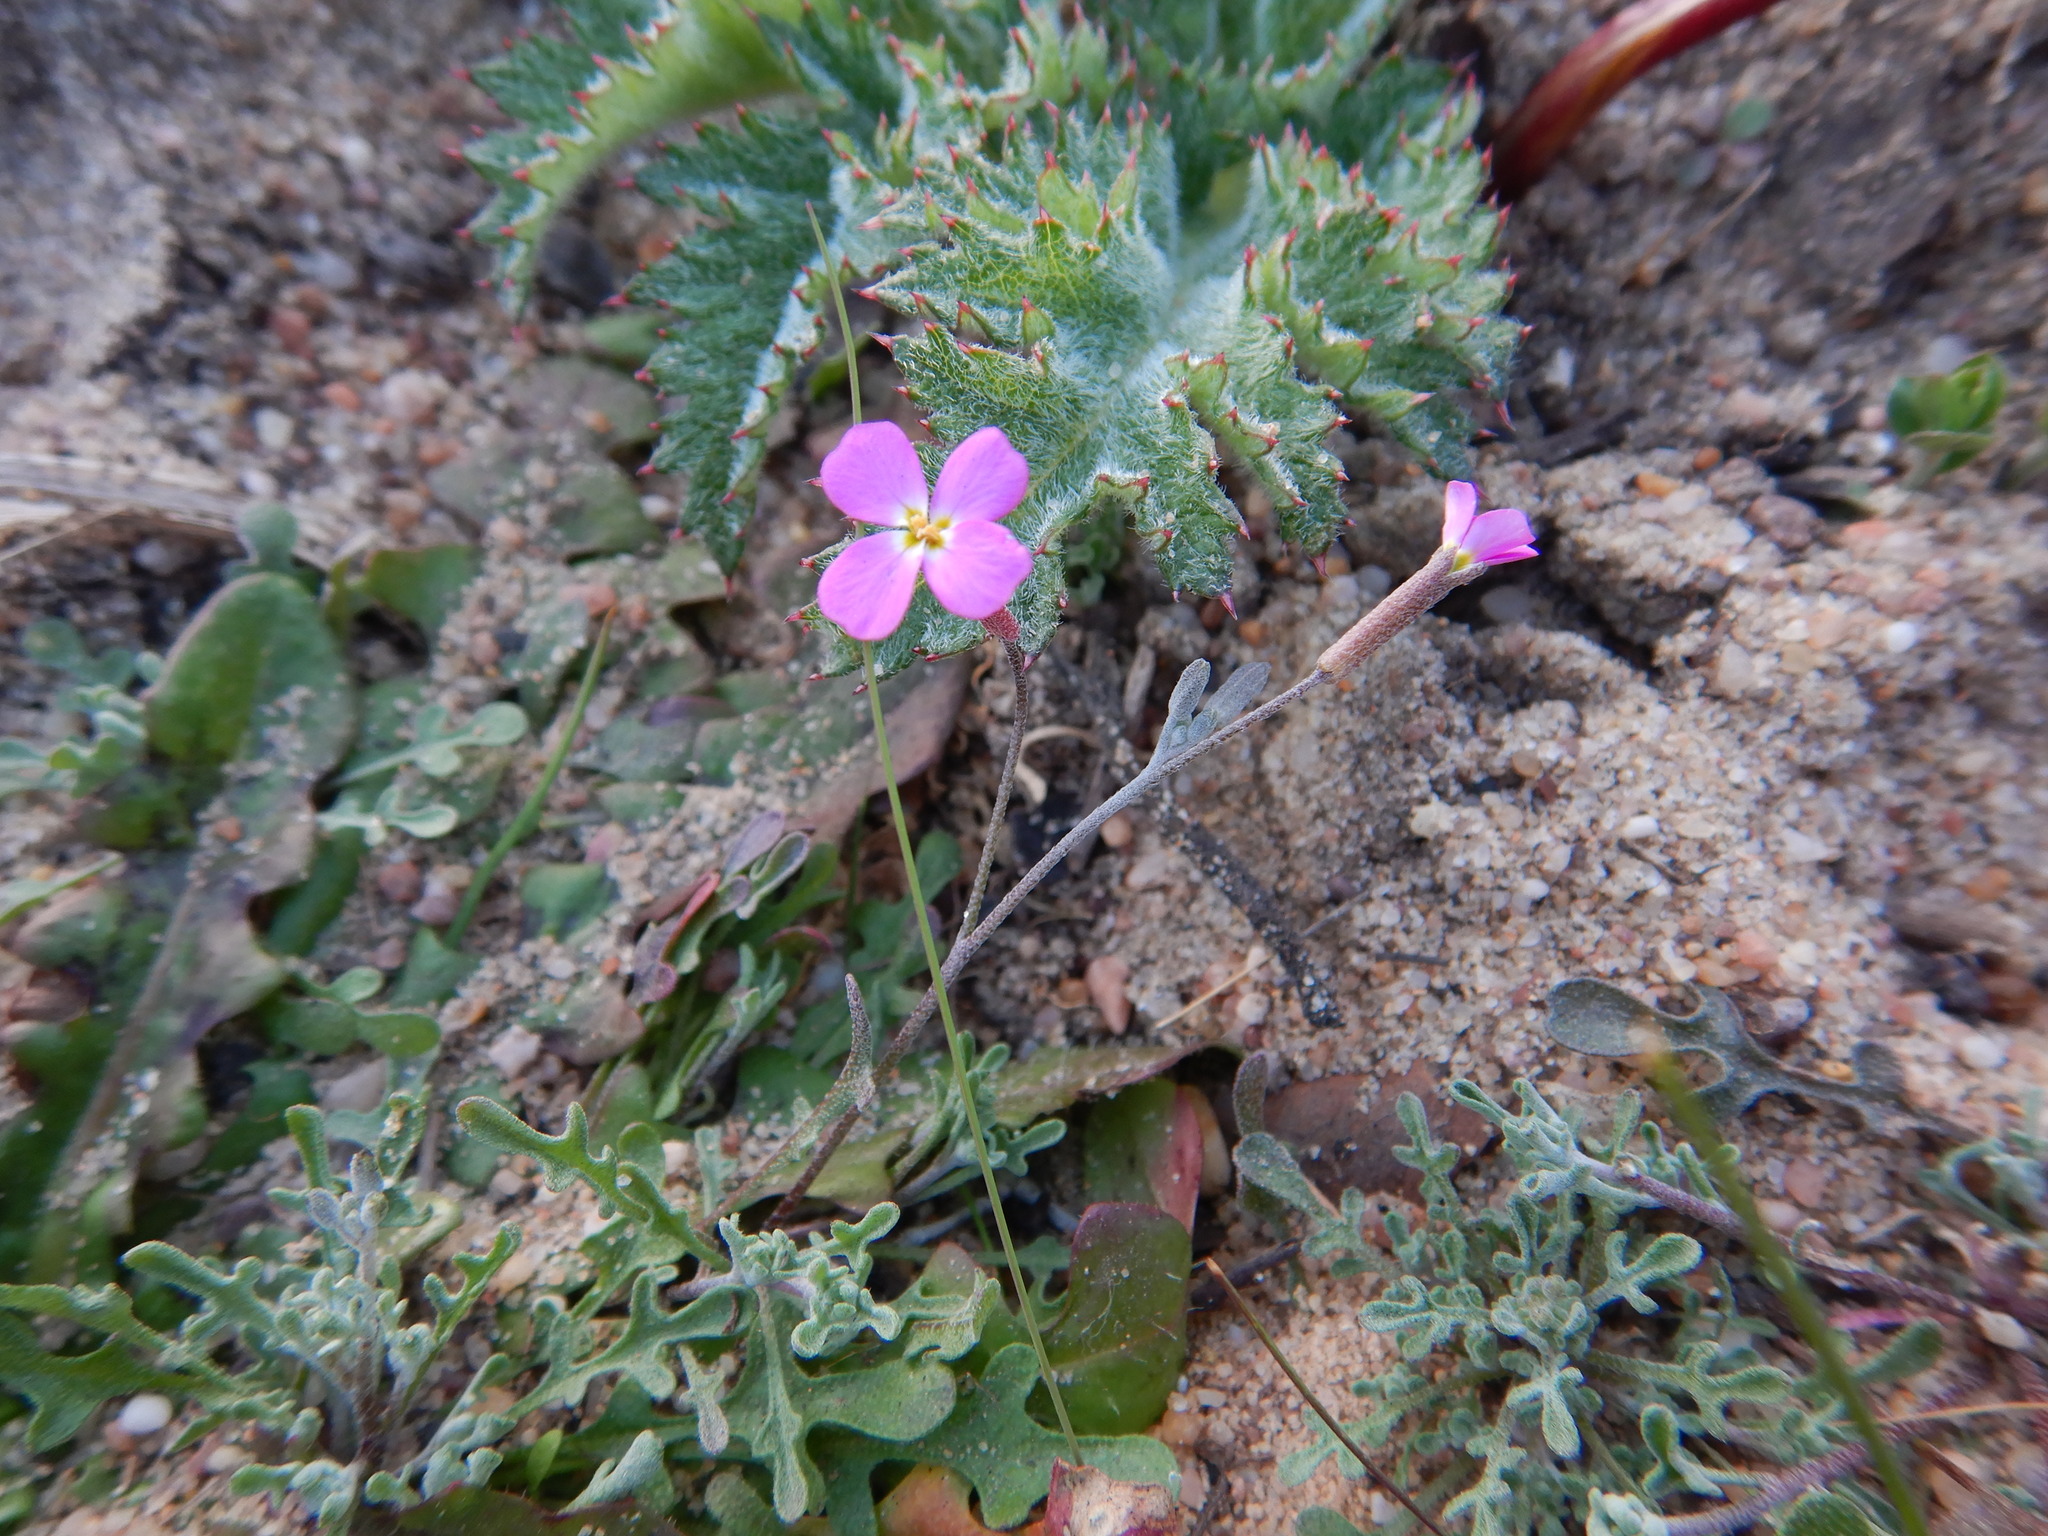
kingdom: Plantae
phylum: Tracheophyta
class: Magnoliopsida
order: Brassicales
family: Brassicaceae
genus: Marcuskochia
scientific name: Marcuskochia triloba
